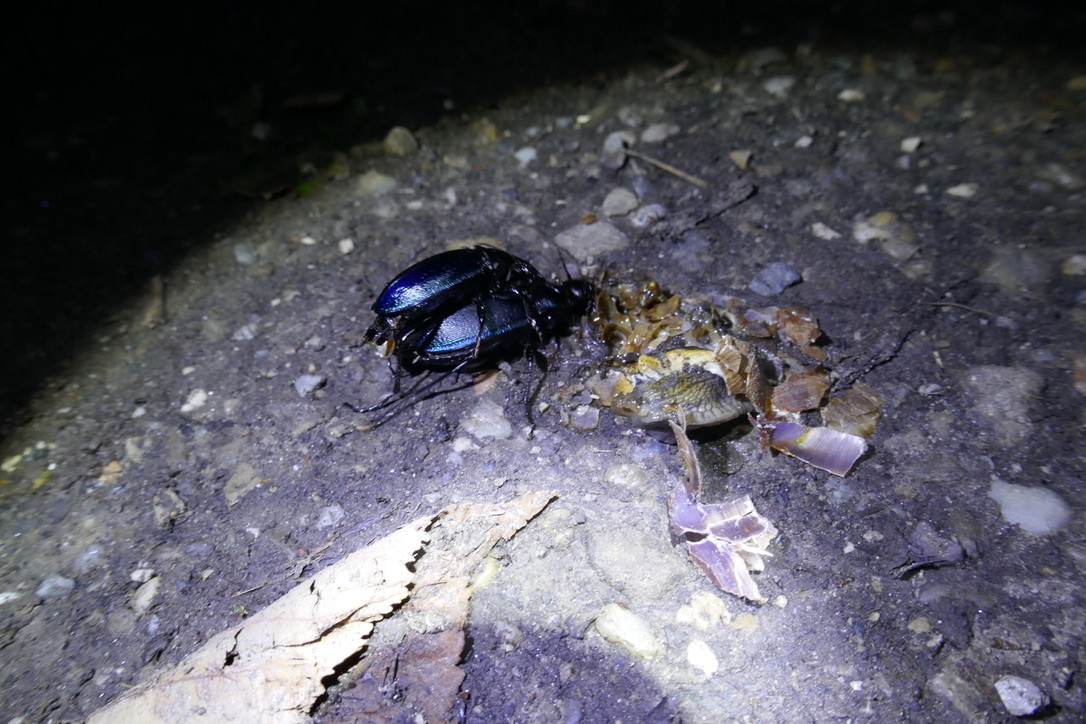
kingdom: Animalia
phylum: Arthropoda
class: Insecta
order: Coleoptera
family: Carabidae
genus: Carabus
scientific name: Carabus scheidleri
